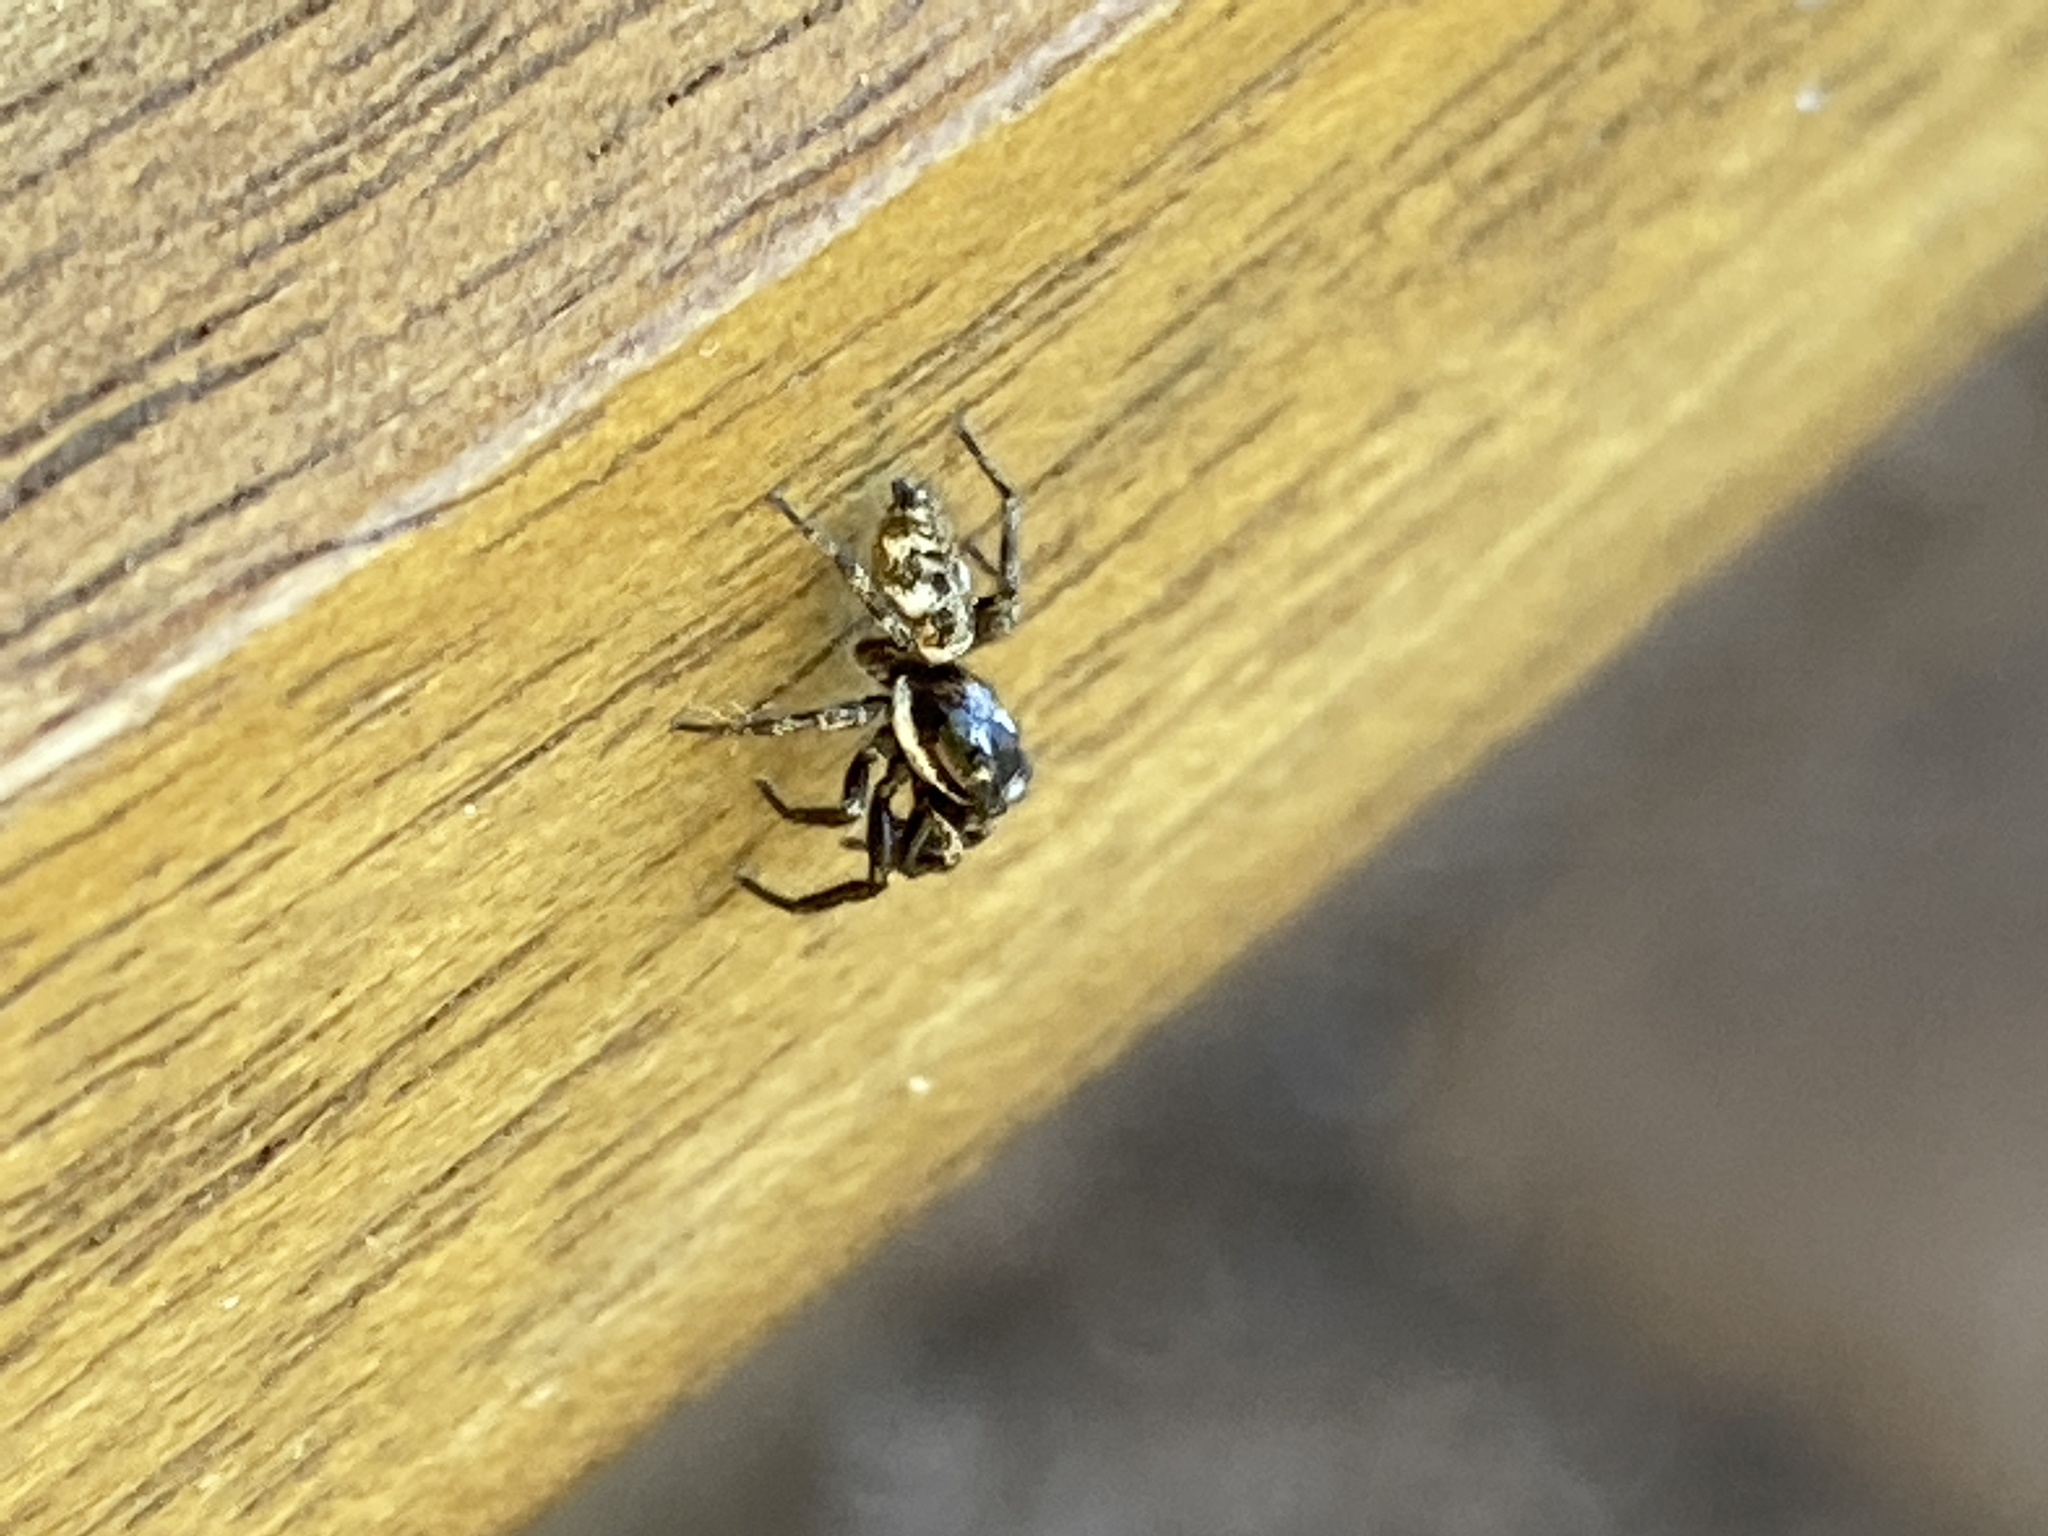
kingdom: Animalia
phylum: Arthropoda
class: Arachnida
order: Araneae
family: Salticidae
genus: Salticus
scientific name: Salticus scenicus
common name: Zebra jumper
